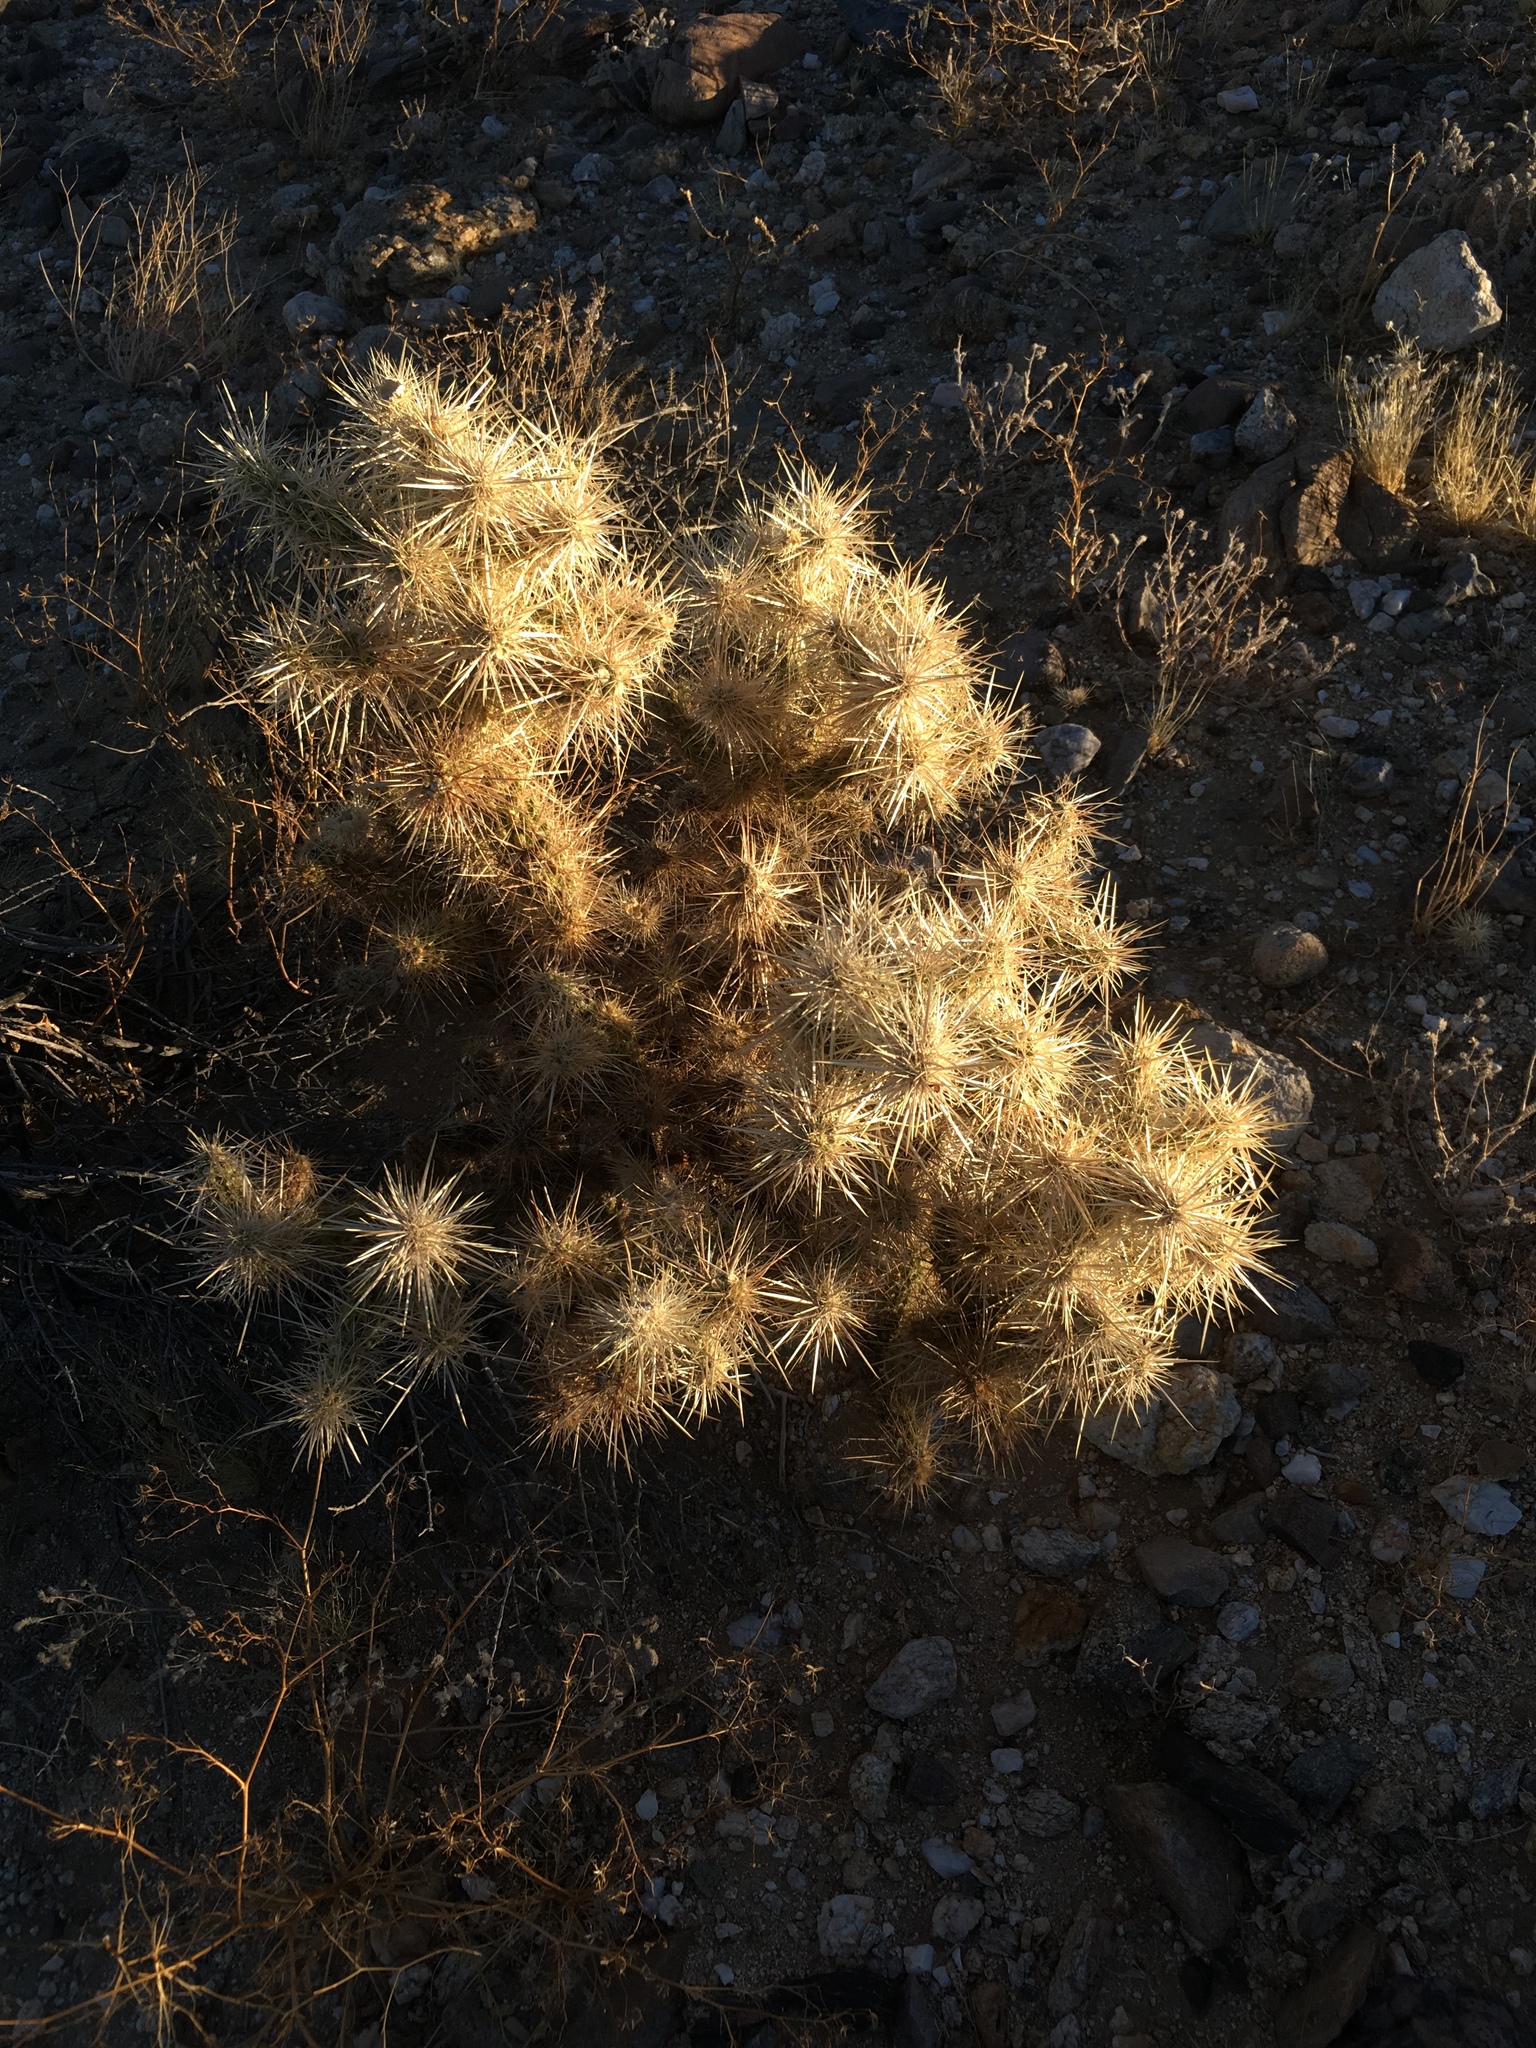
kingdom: Plantae
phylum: Tracheophyta
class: Magnoliopsida
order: Caryophyllales
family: Cactaceae
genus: Cylindropuntia
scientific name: Cylindropuntia echinocarpa
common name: Ground cholla
